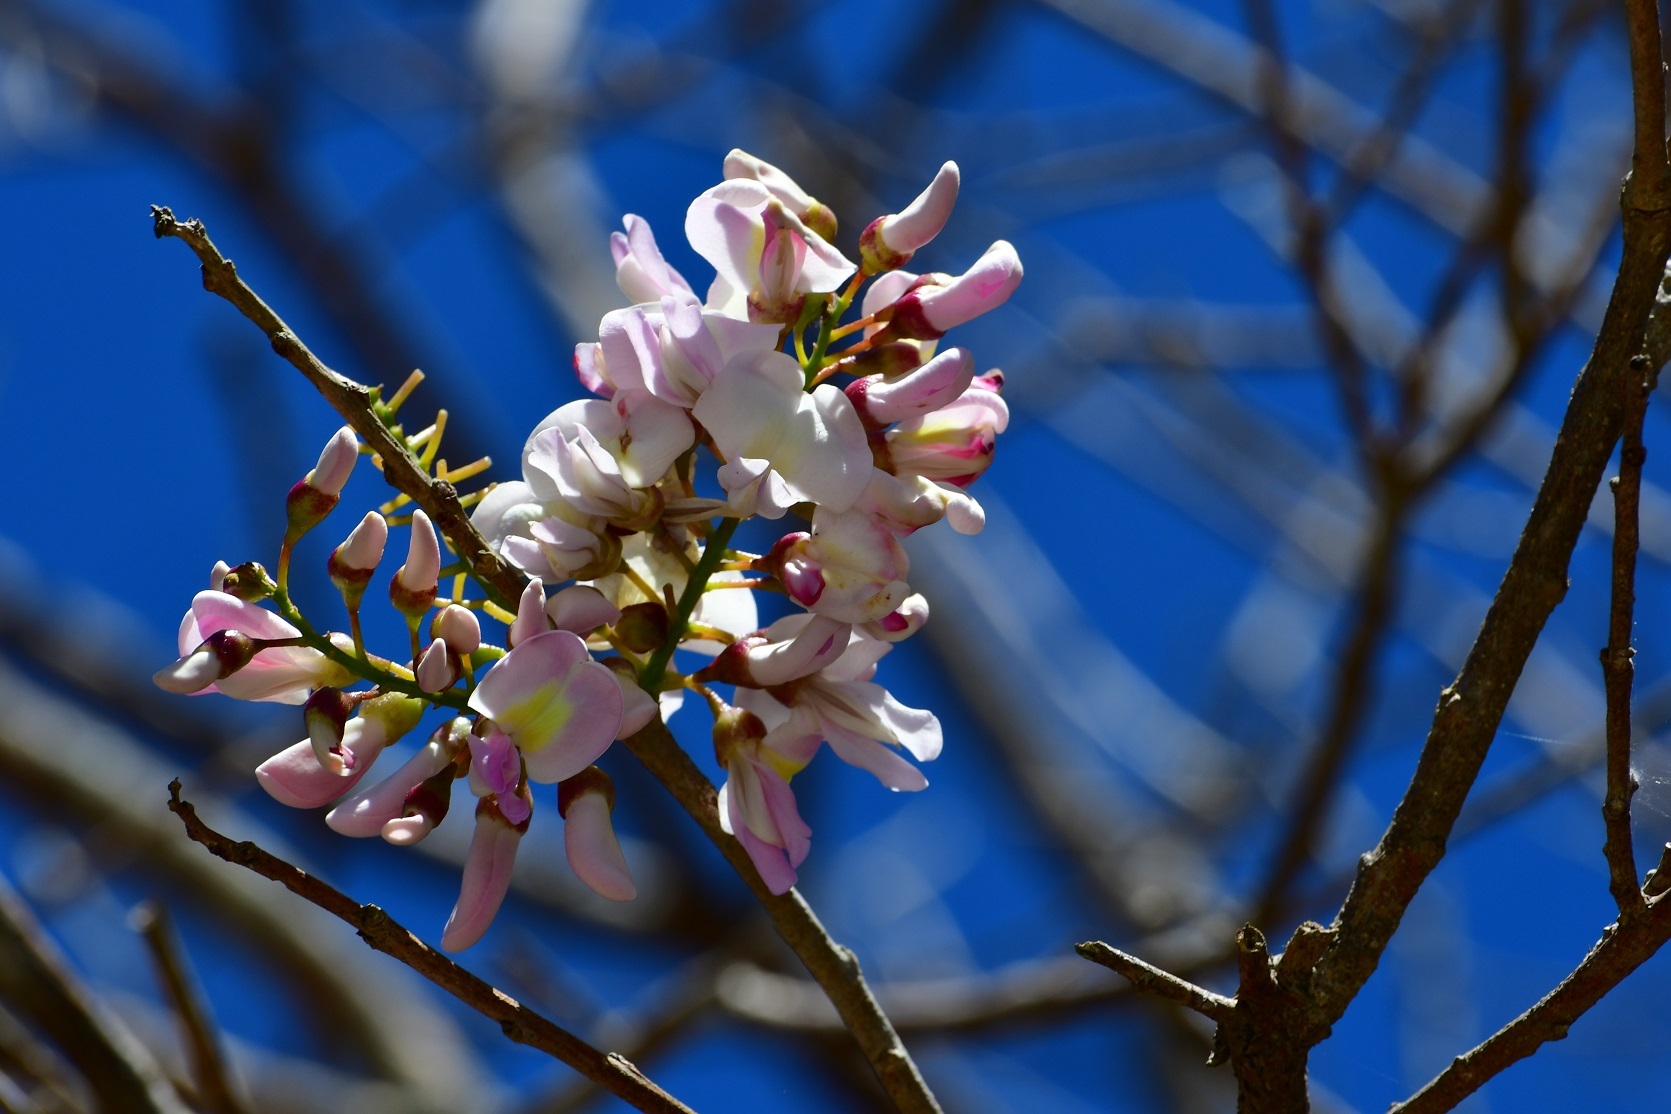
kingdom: Plantae
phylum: Tracheophyta
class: Magnoliopsida
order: Fabales
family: Fabaceae
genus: Gliricidia
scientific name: Gliricidia sepium
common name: Quickstick
